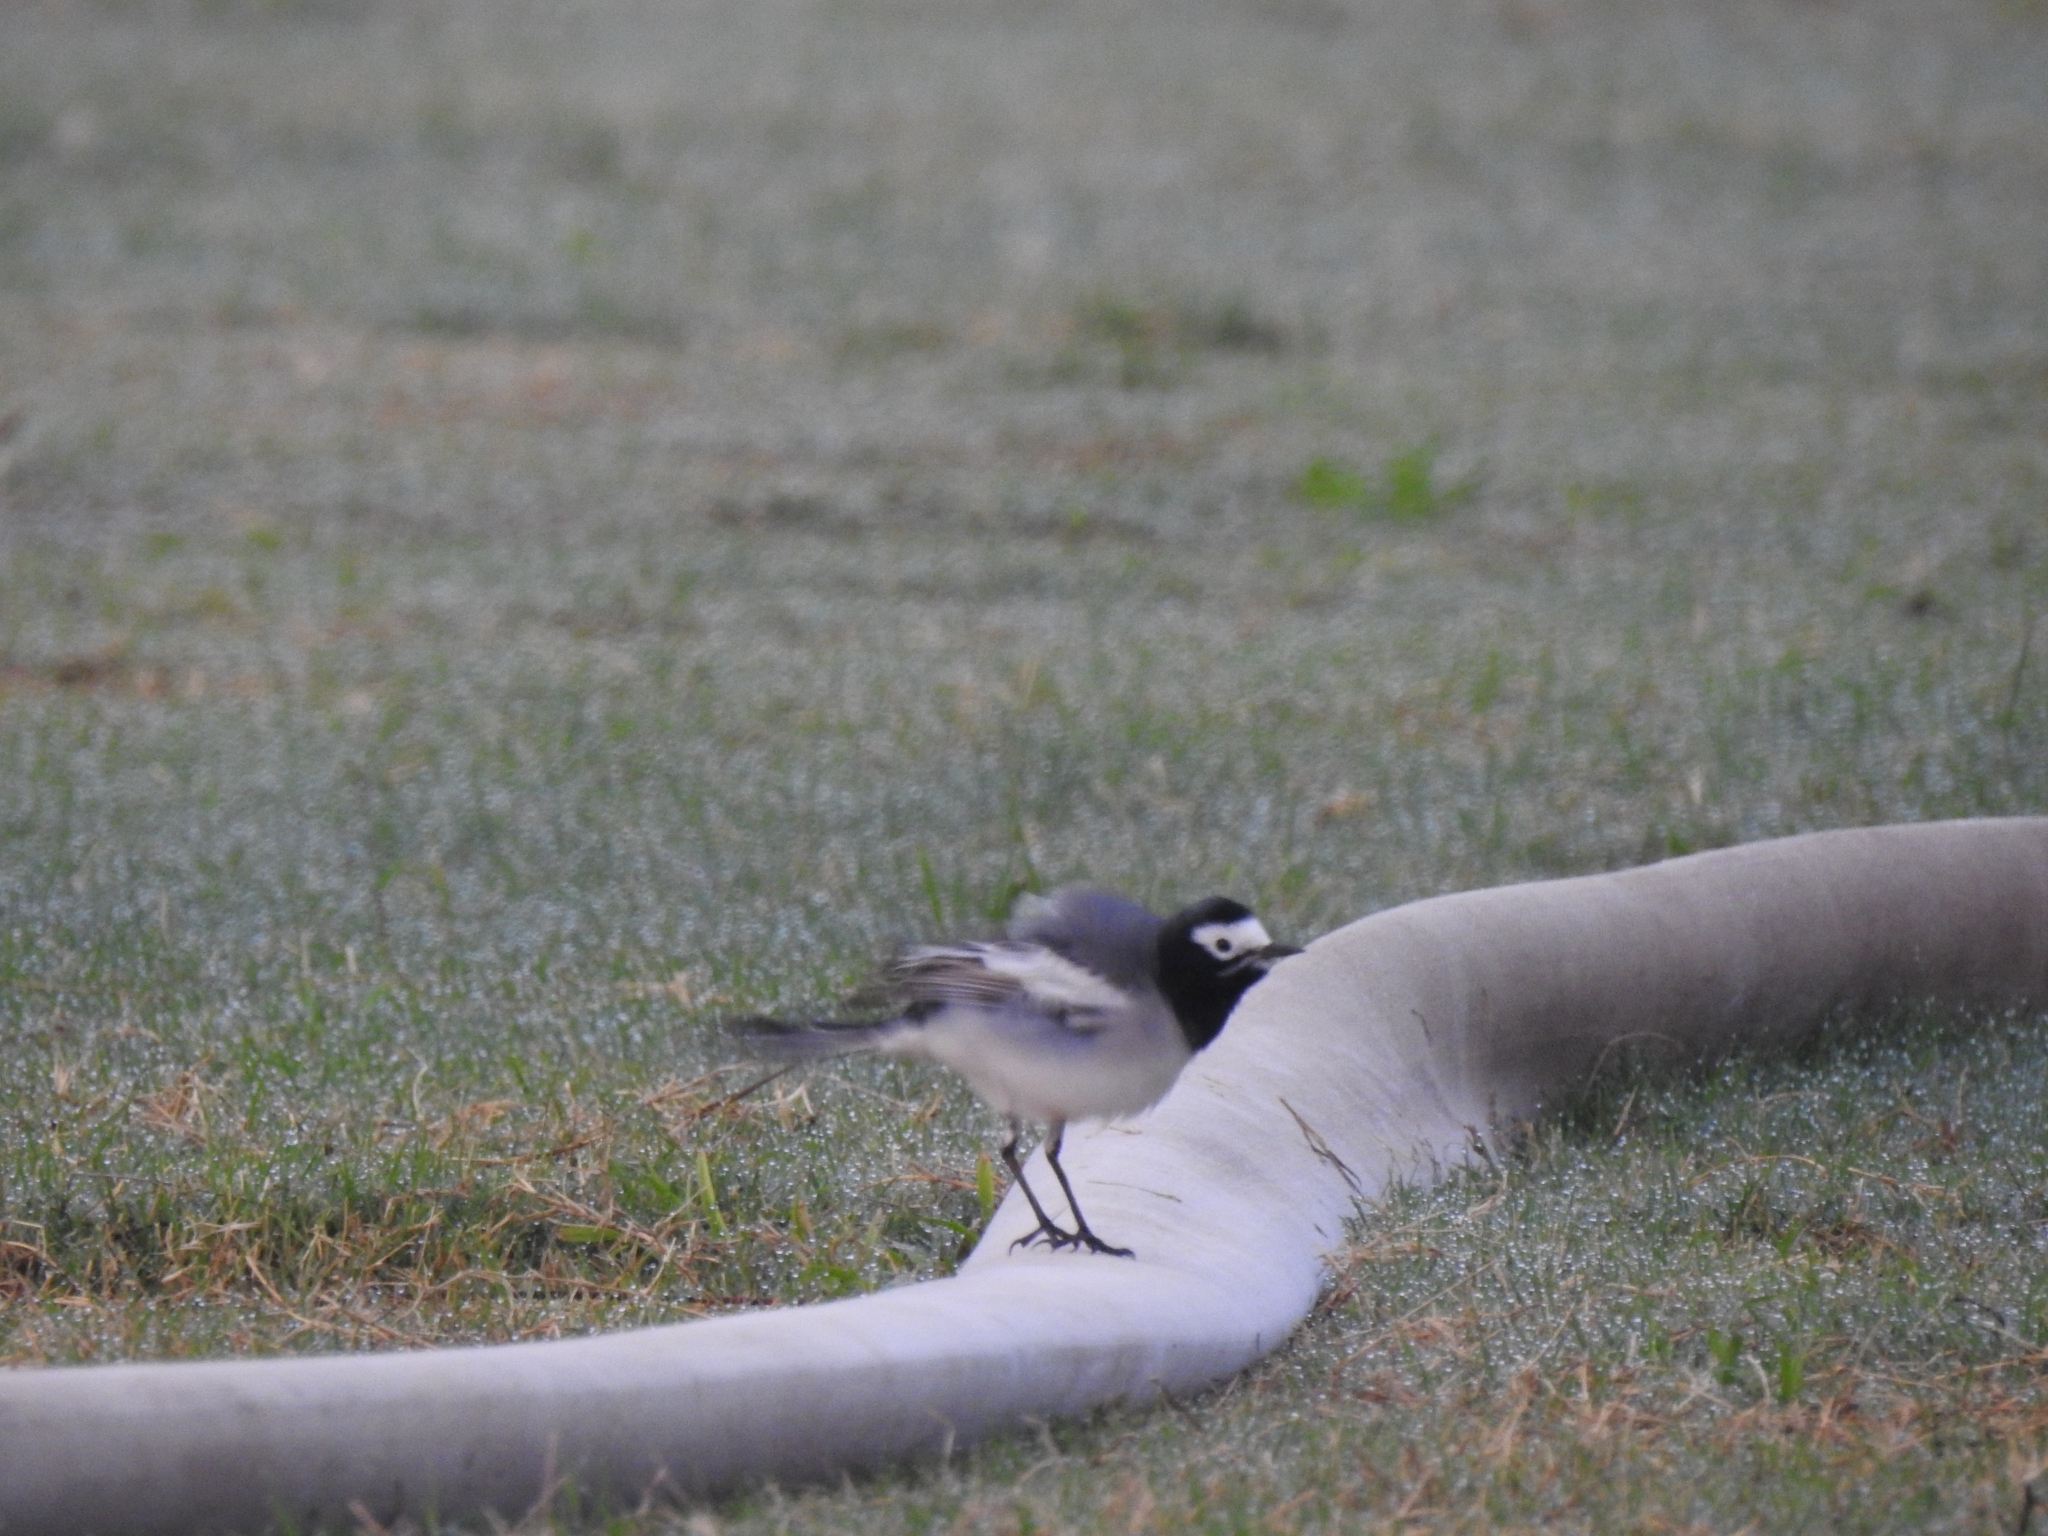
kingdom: Animalia
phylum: Chordata
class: Aves
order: Passeriformes
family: Motacillidae
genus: Motacilla
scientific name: Motacilla alba
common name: White wagtail
